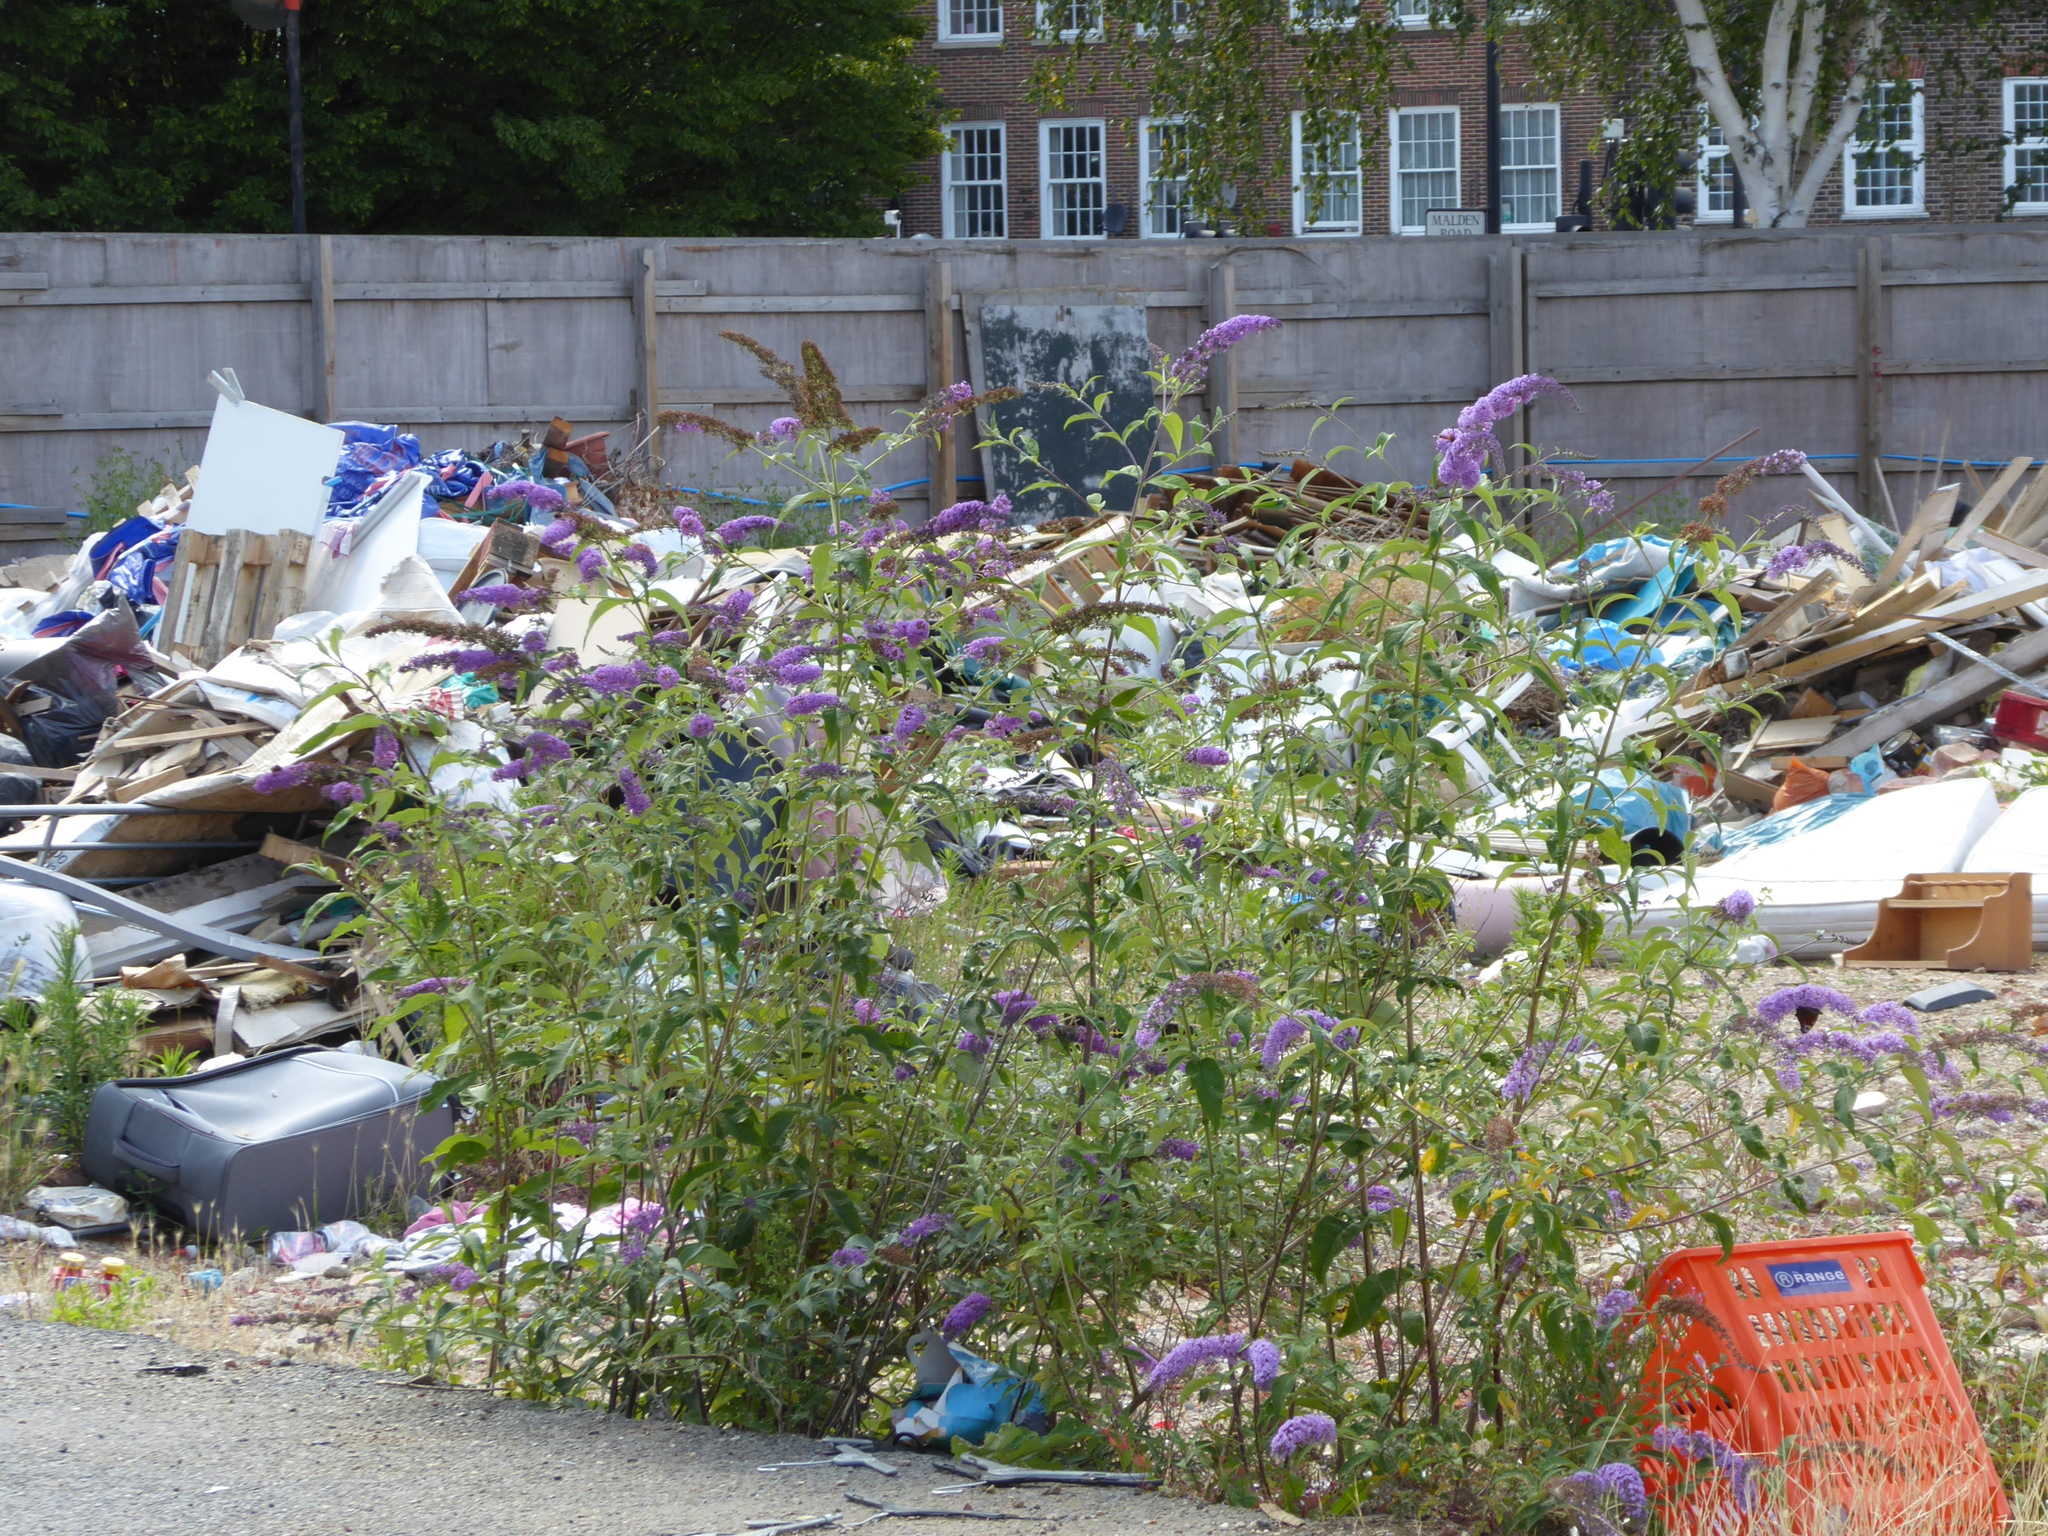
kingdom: Plantae
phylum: Tracheophyta
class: Magnoliopsida
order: Lamiales
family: Scrophulariaceae
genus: Buddleja
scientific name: Buddleja davidii
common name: Butterfly-bush
